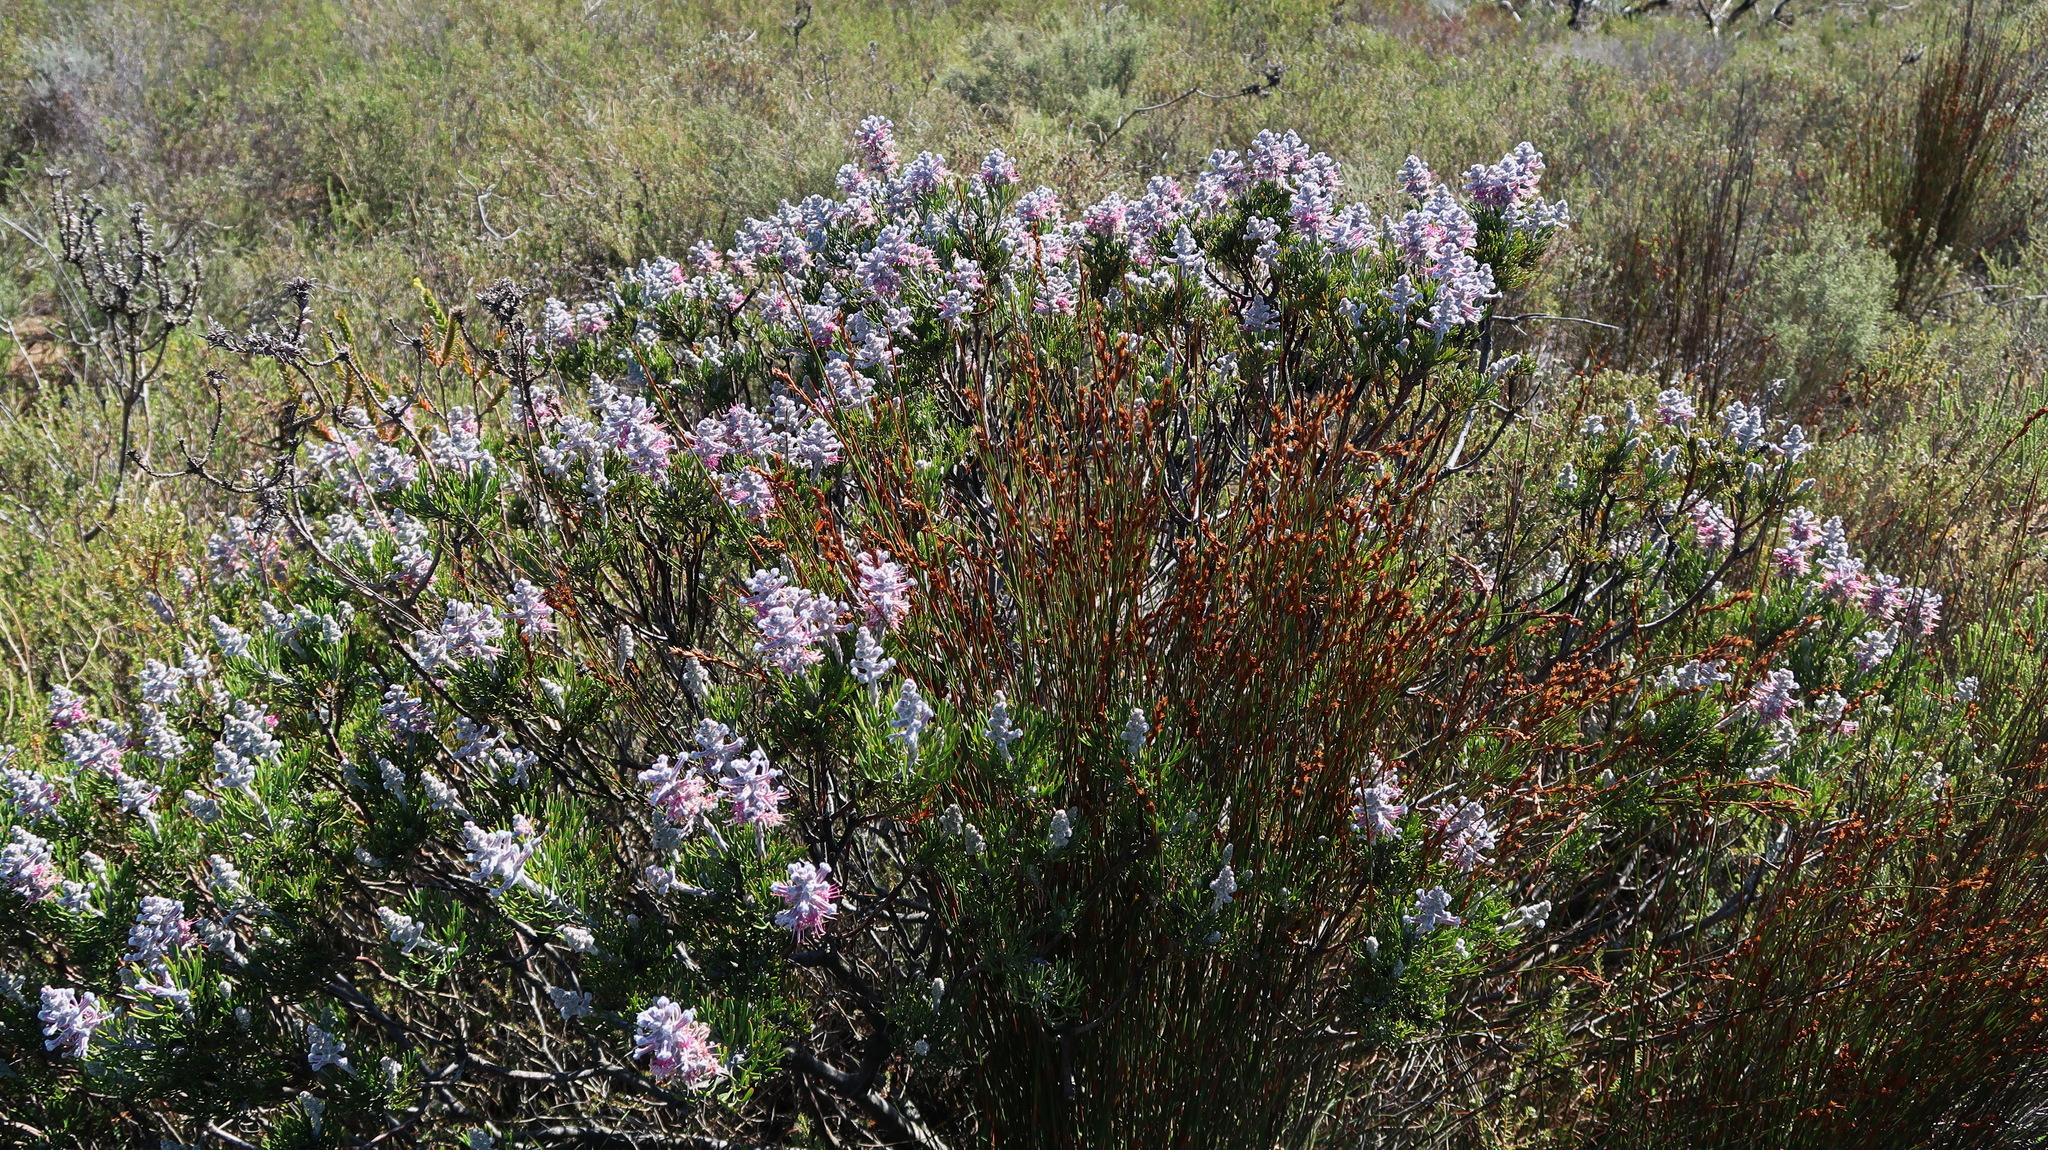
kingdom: Plantae
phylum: Tracheophyta
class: Magnoliopsida
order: Proteales
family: Proteaceae
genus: Paranomus
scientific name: Paranomus dispersus
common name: Long-head sceptre
